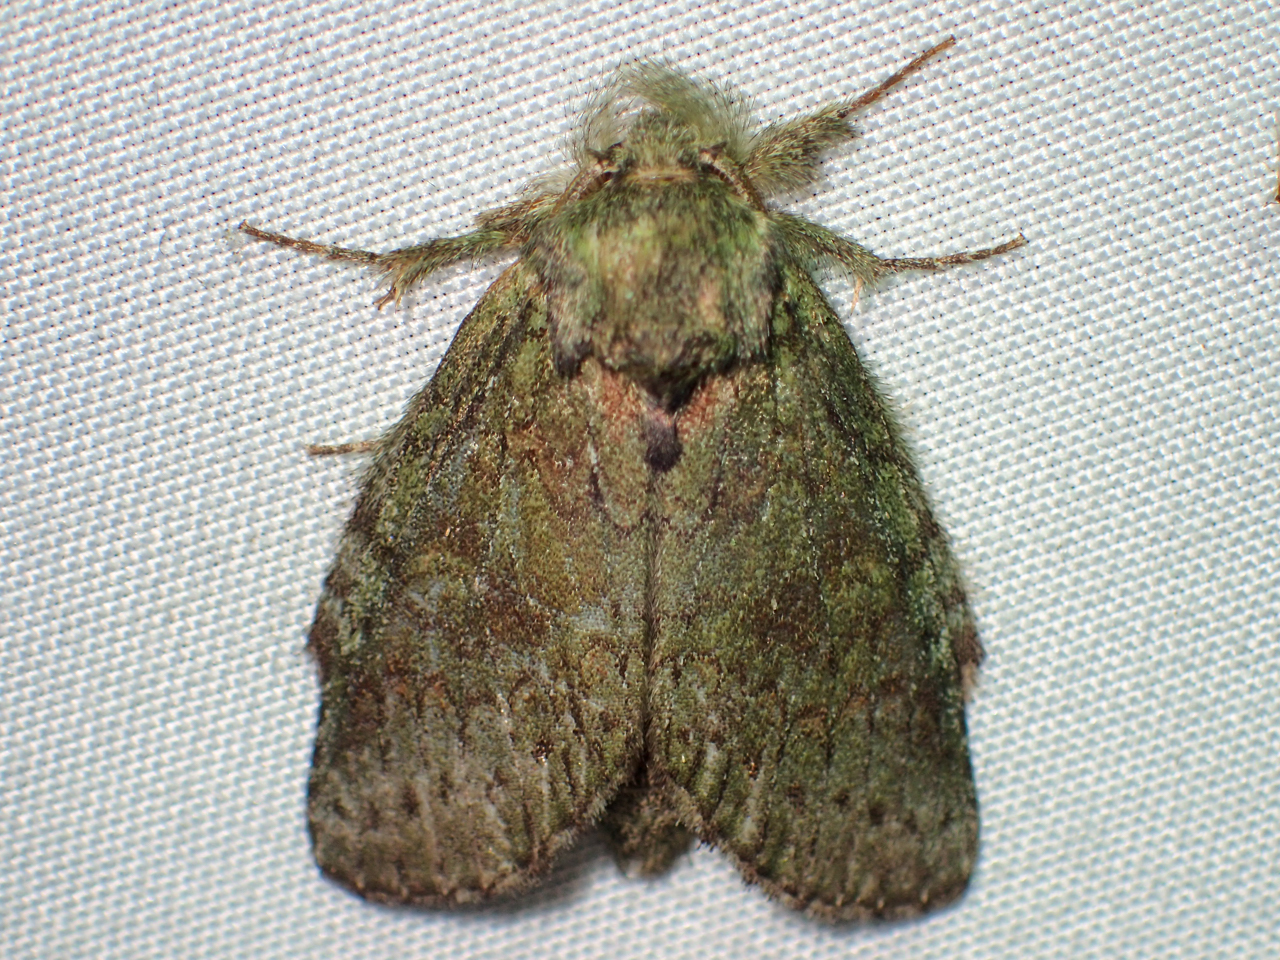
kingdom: Animalia
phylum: Arthropoda
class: Insecta
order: Lepidoptera
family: Notodontidae
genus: Disphragis
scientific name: Disphragis Cecrita biundata
